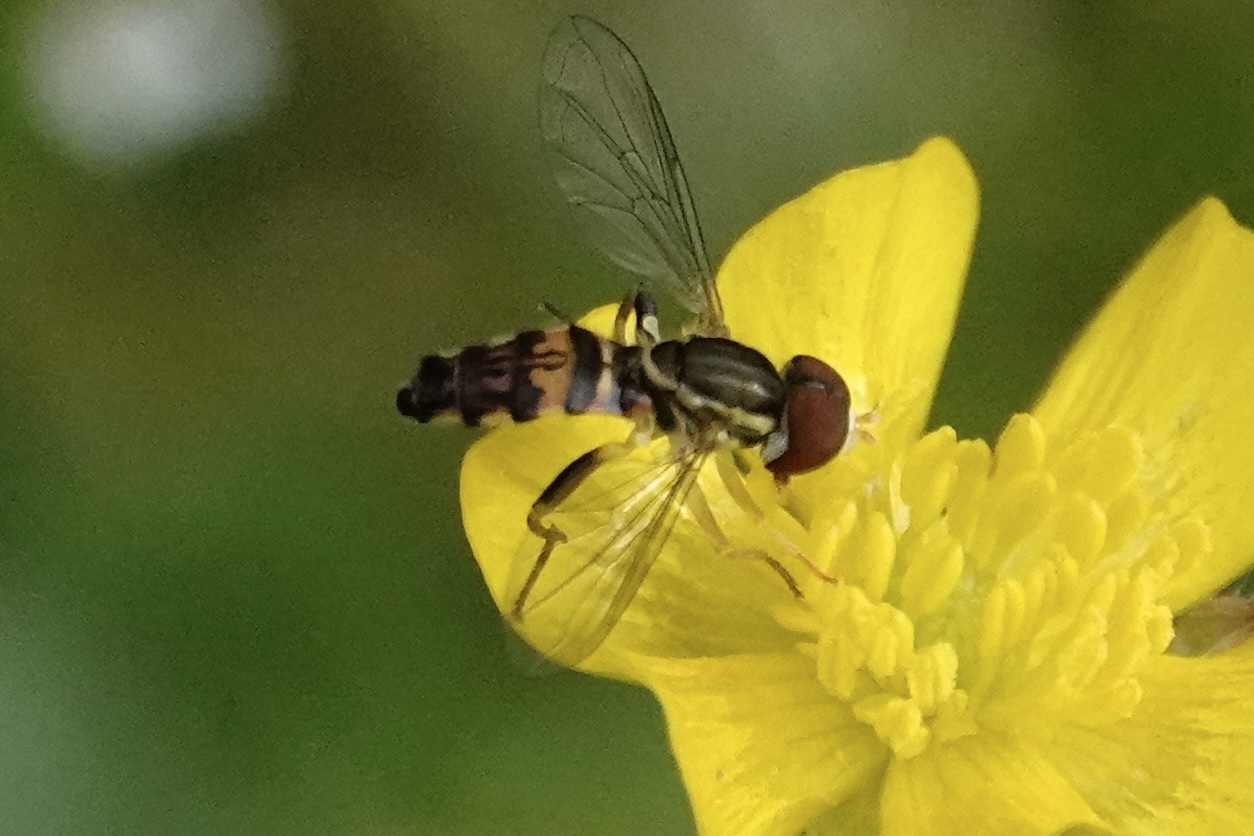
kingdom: Animalia
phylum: Arthropoda
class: Insecta
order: Diptera
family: Syrphidae
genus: Toxomerus
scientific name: Toxomerus geminatus
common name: Eastern calligrapher
